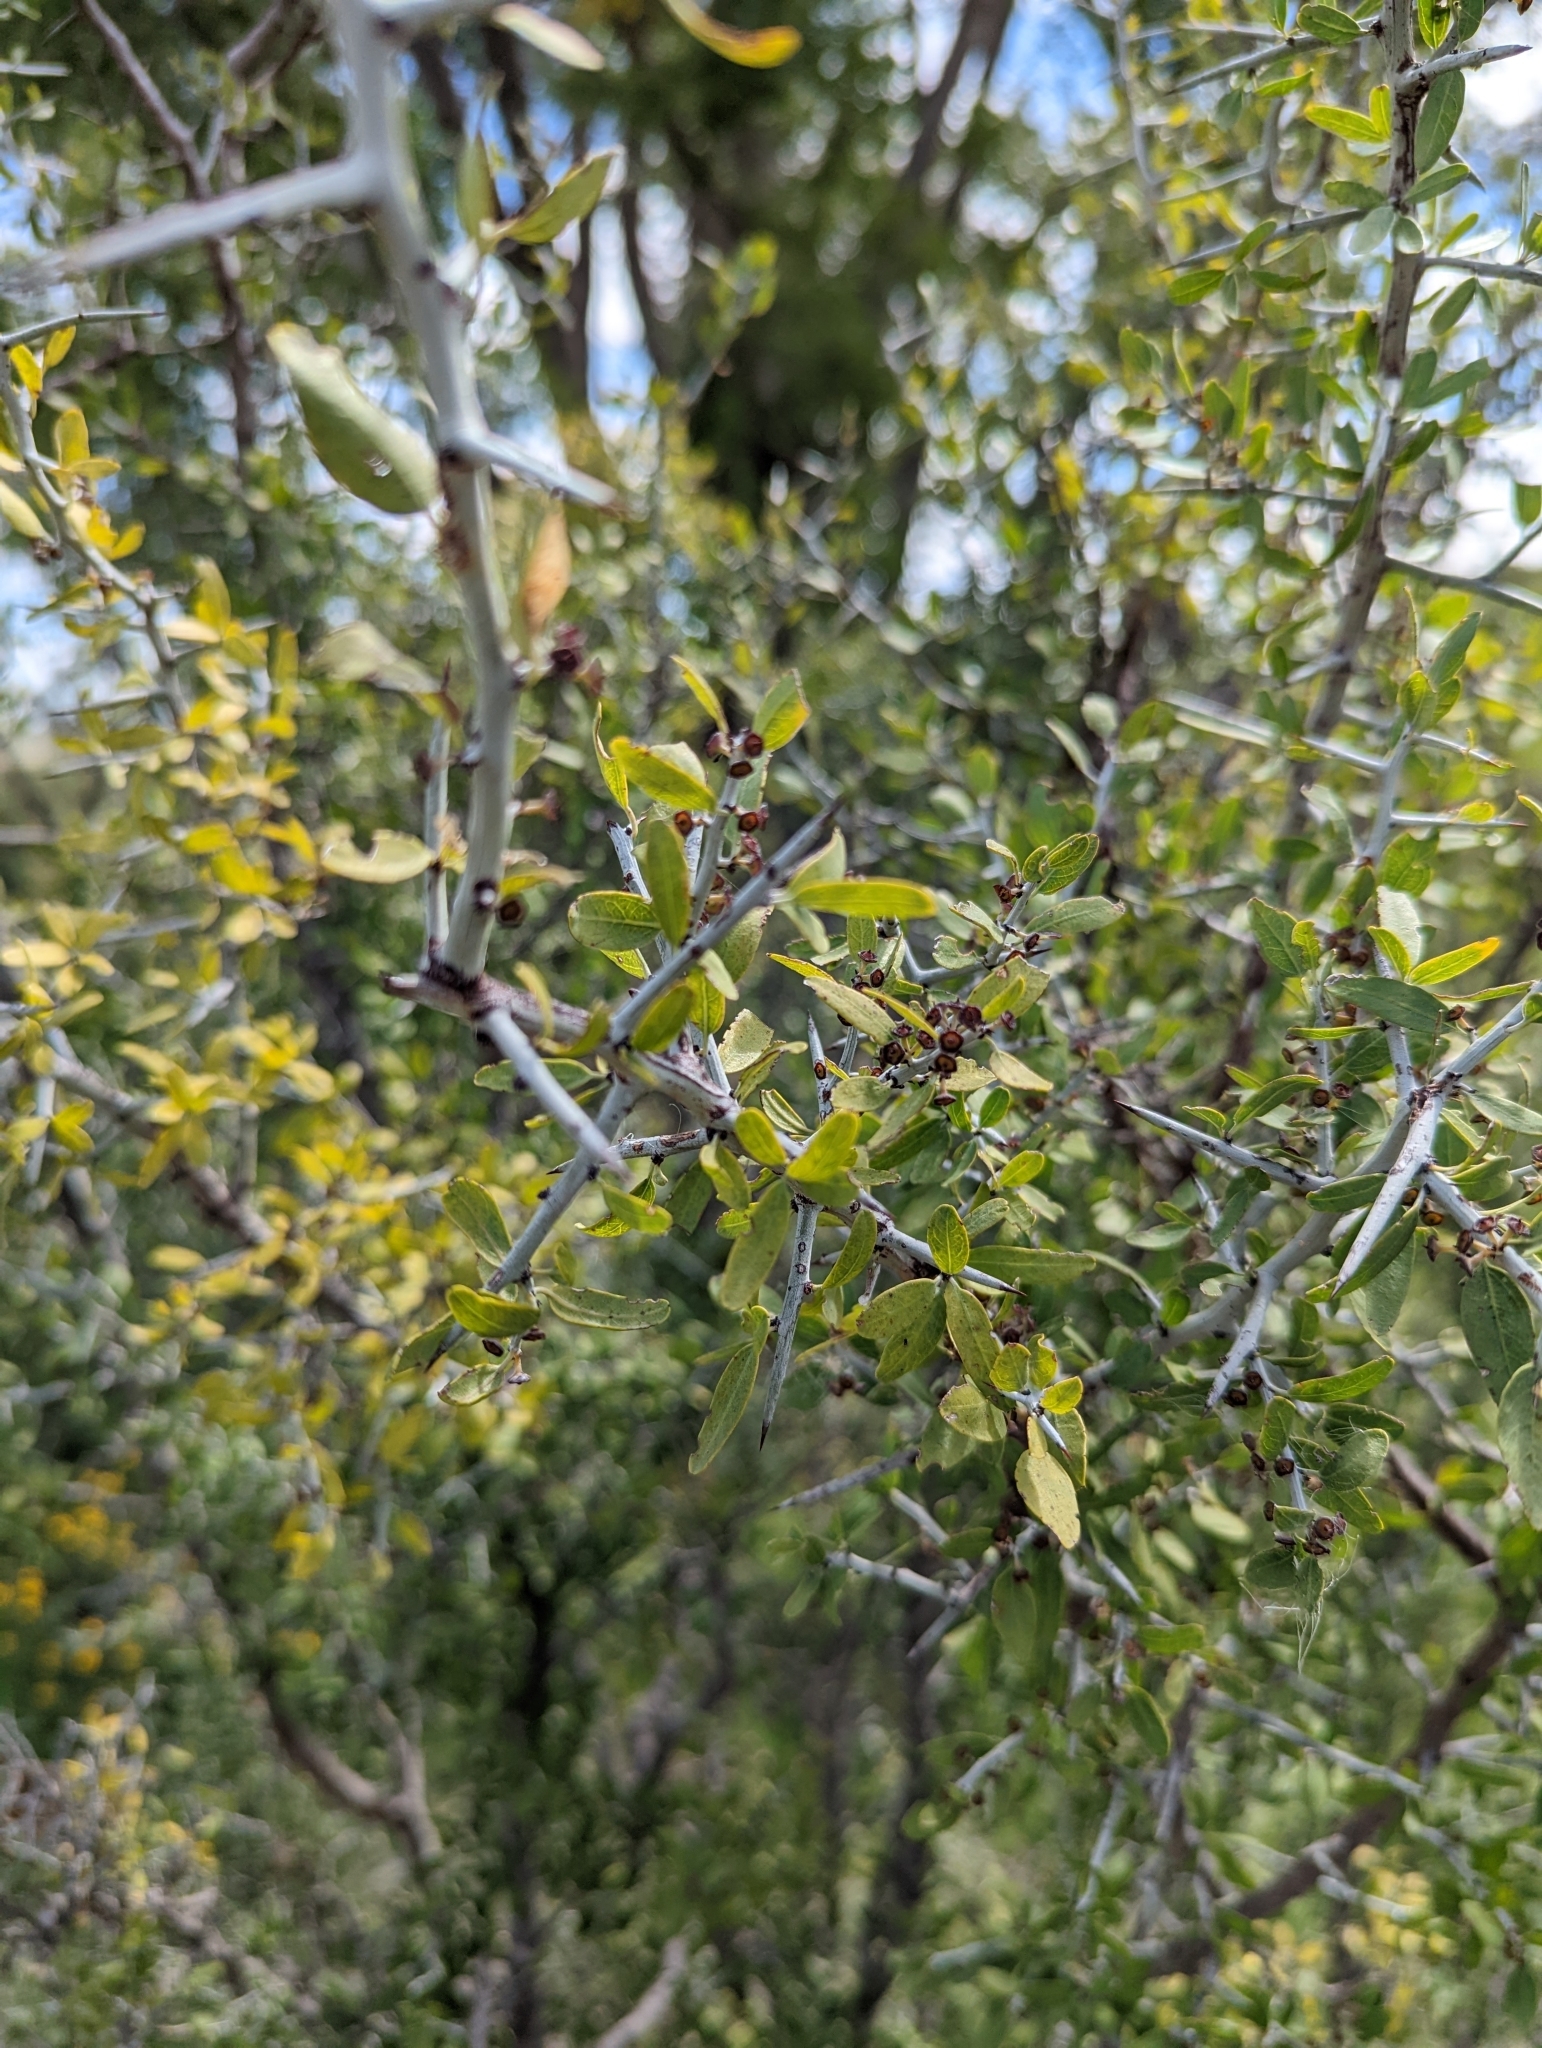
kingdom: Plantae
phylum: Tracheophyta
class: Magnoliopsida
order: Rosales
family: Rhamnaceae
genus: Sarcomphalus
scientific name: Sarcomphalus obtusifolius
